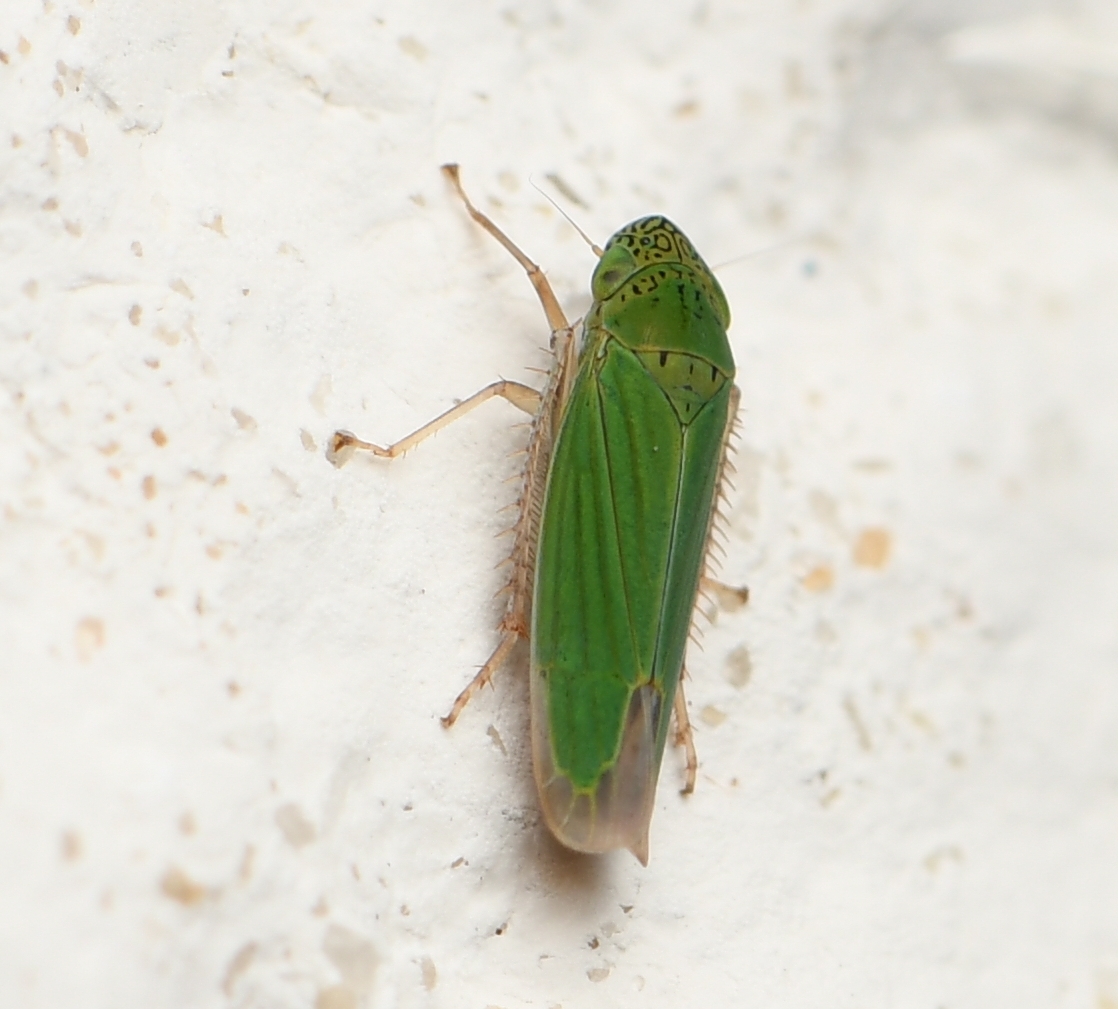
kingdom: Animalia
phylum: Arthropoda
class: Insecta
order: Hemiptera
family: Cicadellidae
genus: Hortensia
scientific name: Hortensia similis
